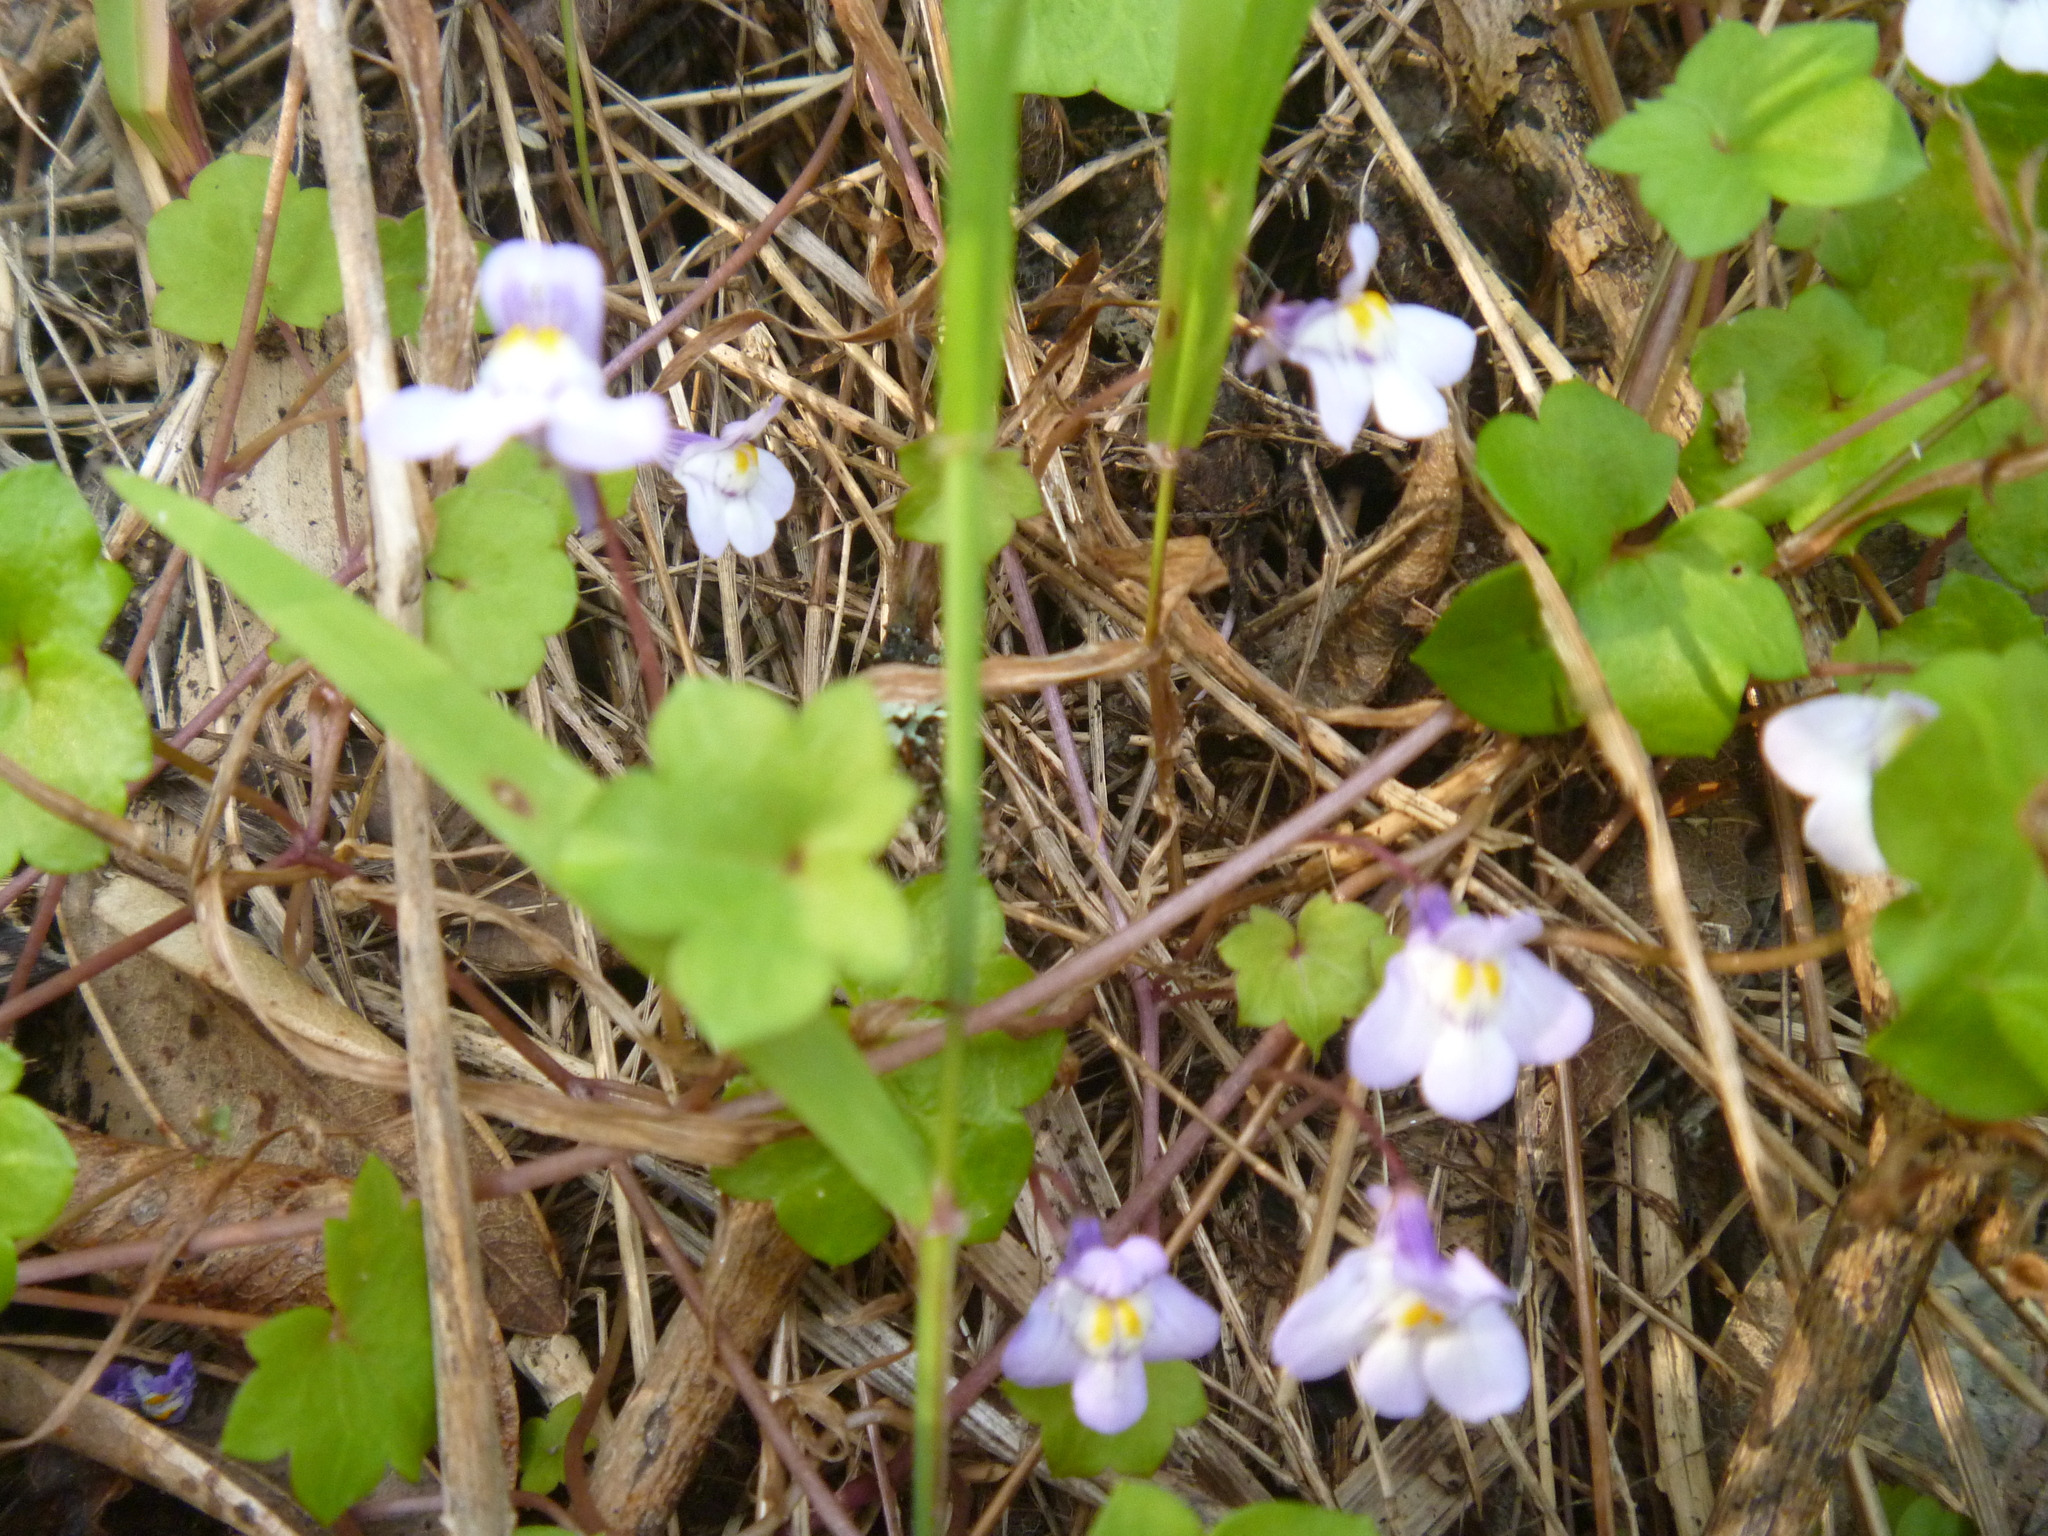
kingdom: Plantae
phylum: Tracheophyta
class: Magnoliopsida
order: Lamiales
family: Plantaginaceae
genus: Cymbalaria
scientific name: Cymbalaria muralis
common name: Ivy-leaved toadflax
